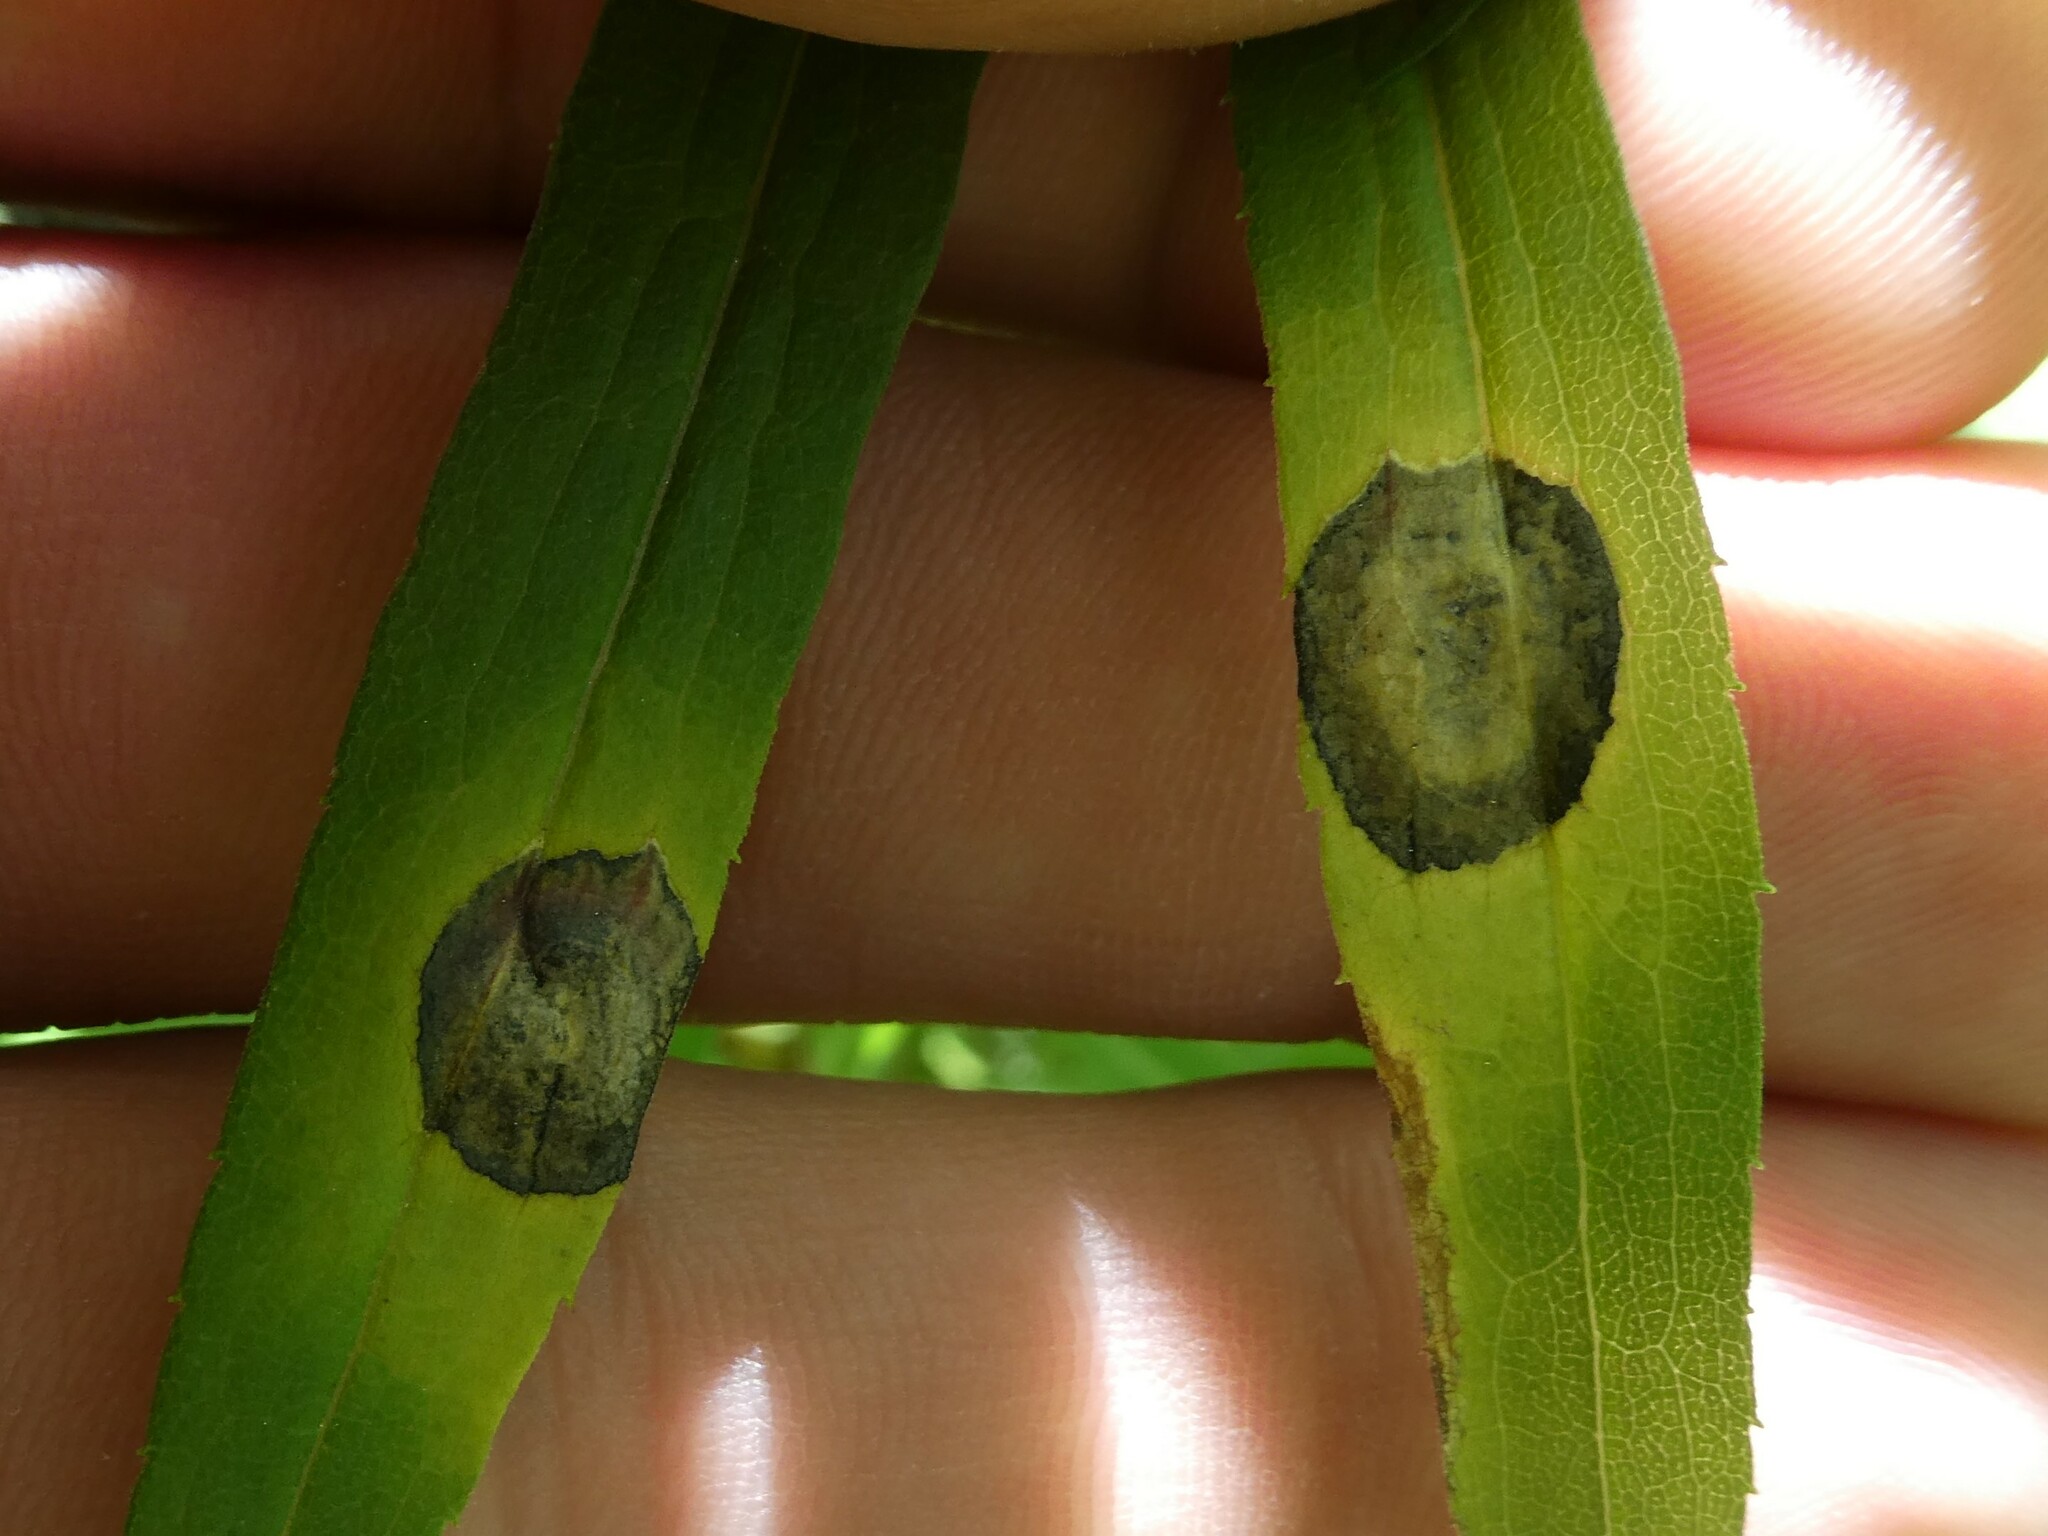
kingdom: Animalia
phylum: Arthropoda
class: Insecta
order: Diptera
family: Cecidomyiidae
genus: Asteromyia
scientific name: Asteromyia carbonifera
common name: Carbonifera goldenrod gall midge
